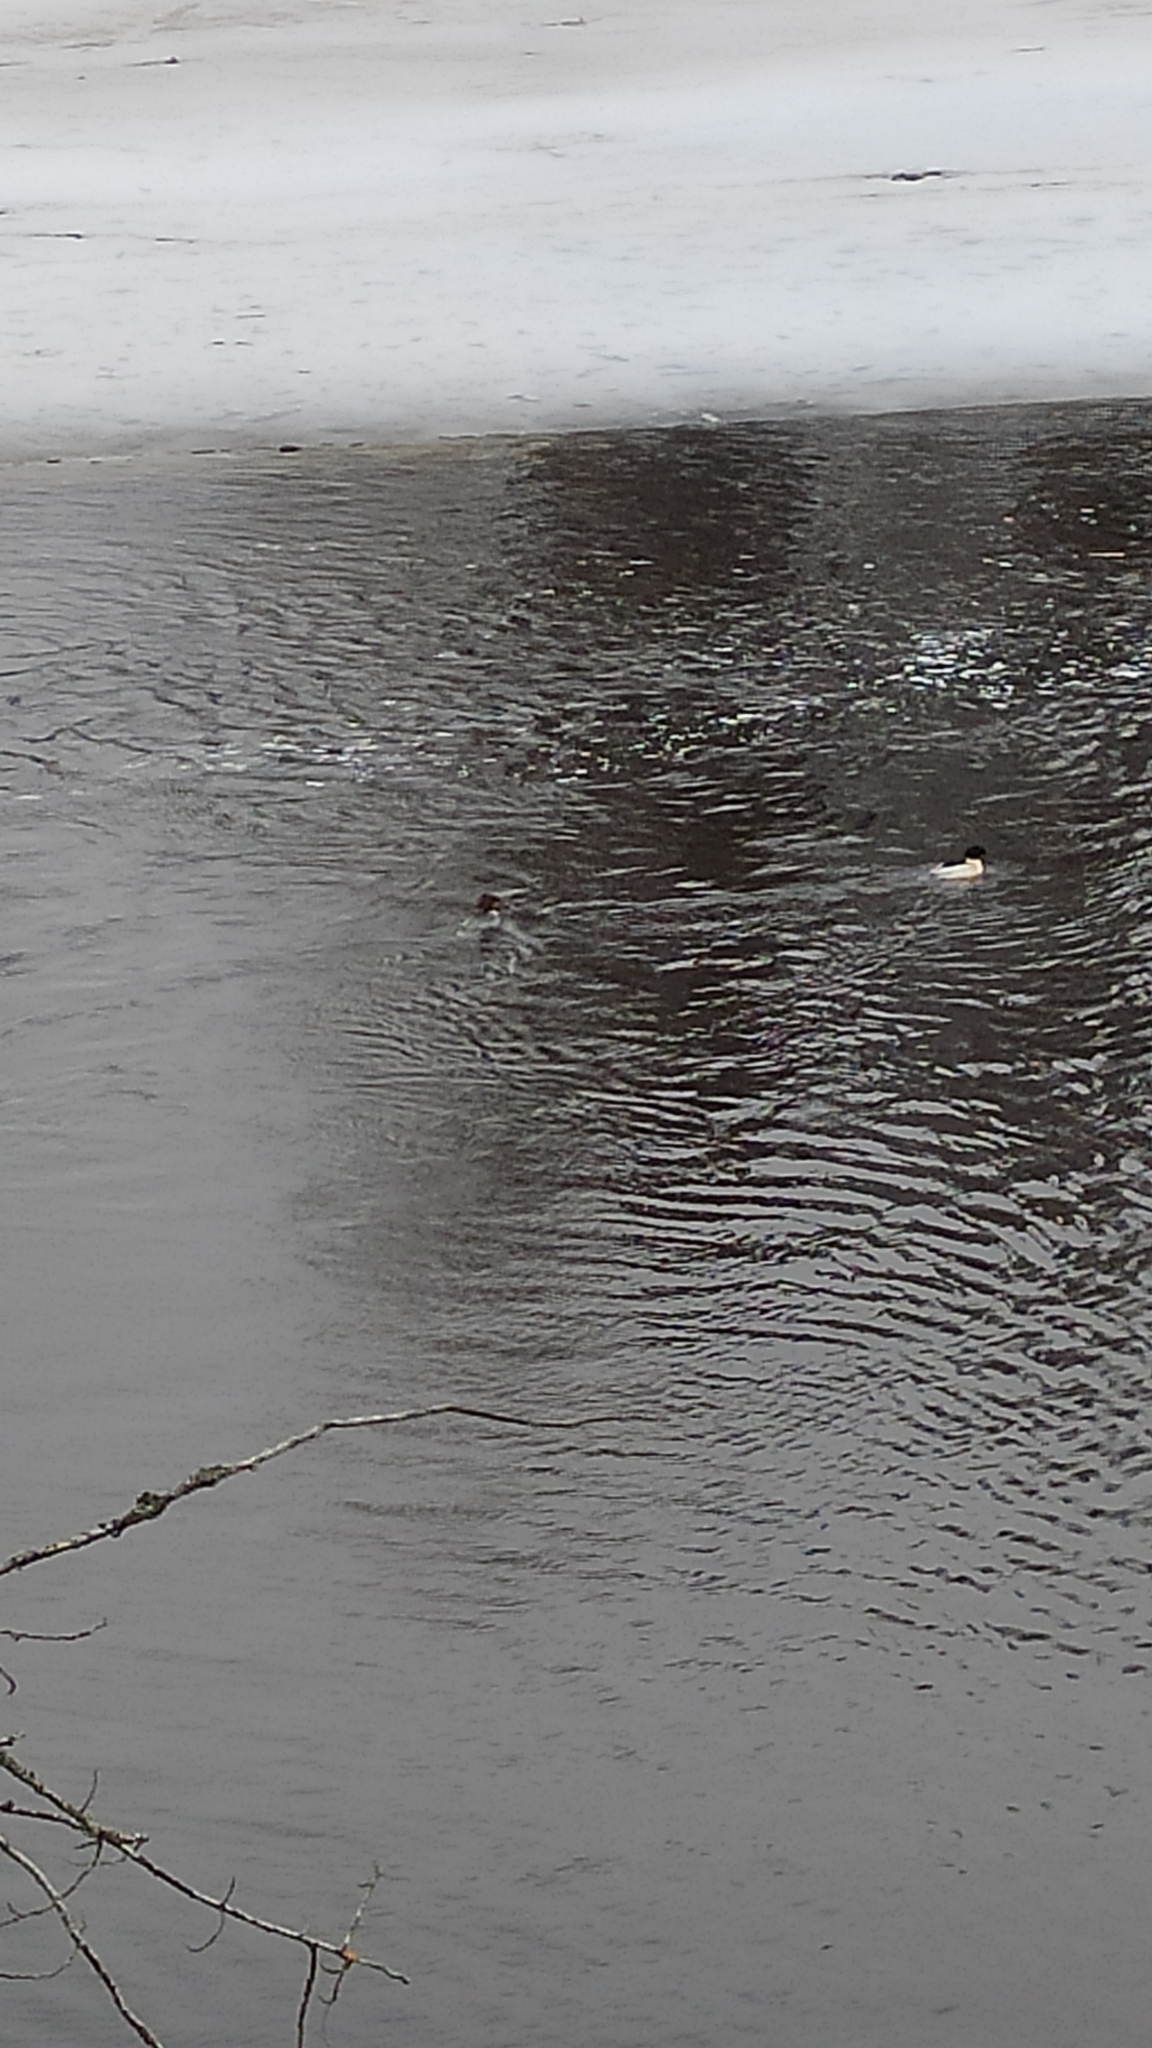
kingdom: Animalia
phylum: Chordata
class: Aves
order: Anseriformes
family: Anatidae
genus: Mergus
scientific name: Mergus merganser
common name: Common merganser
